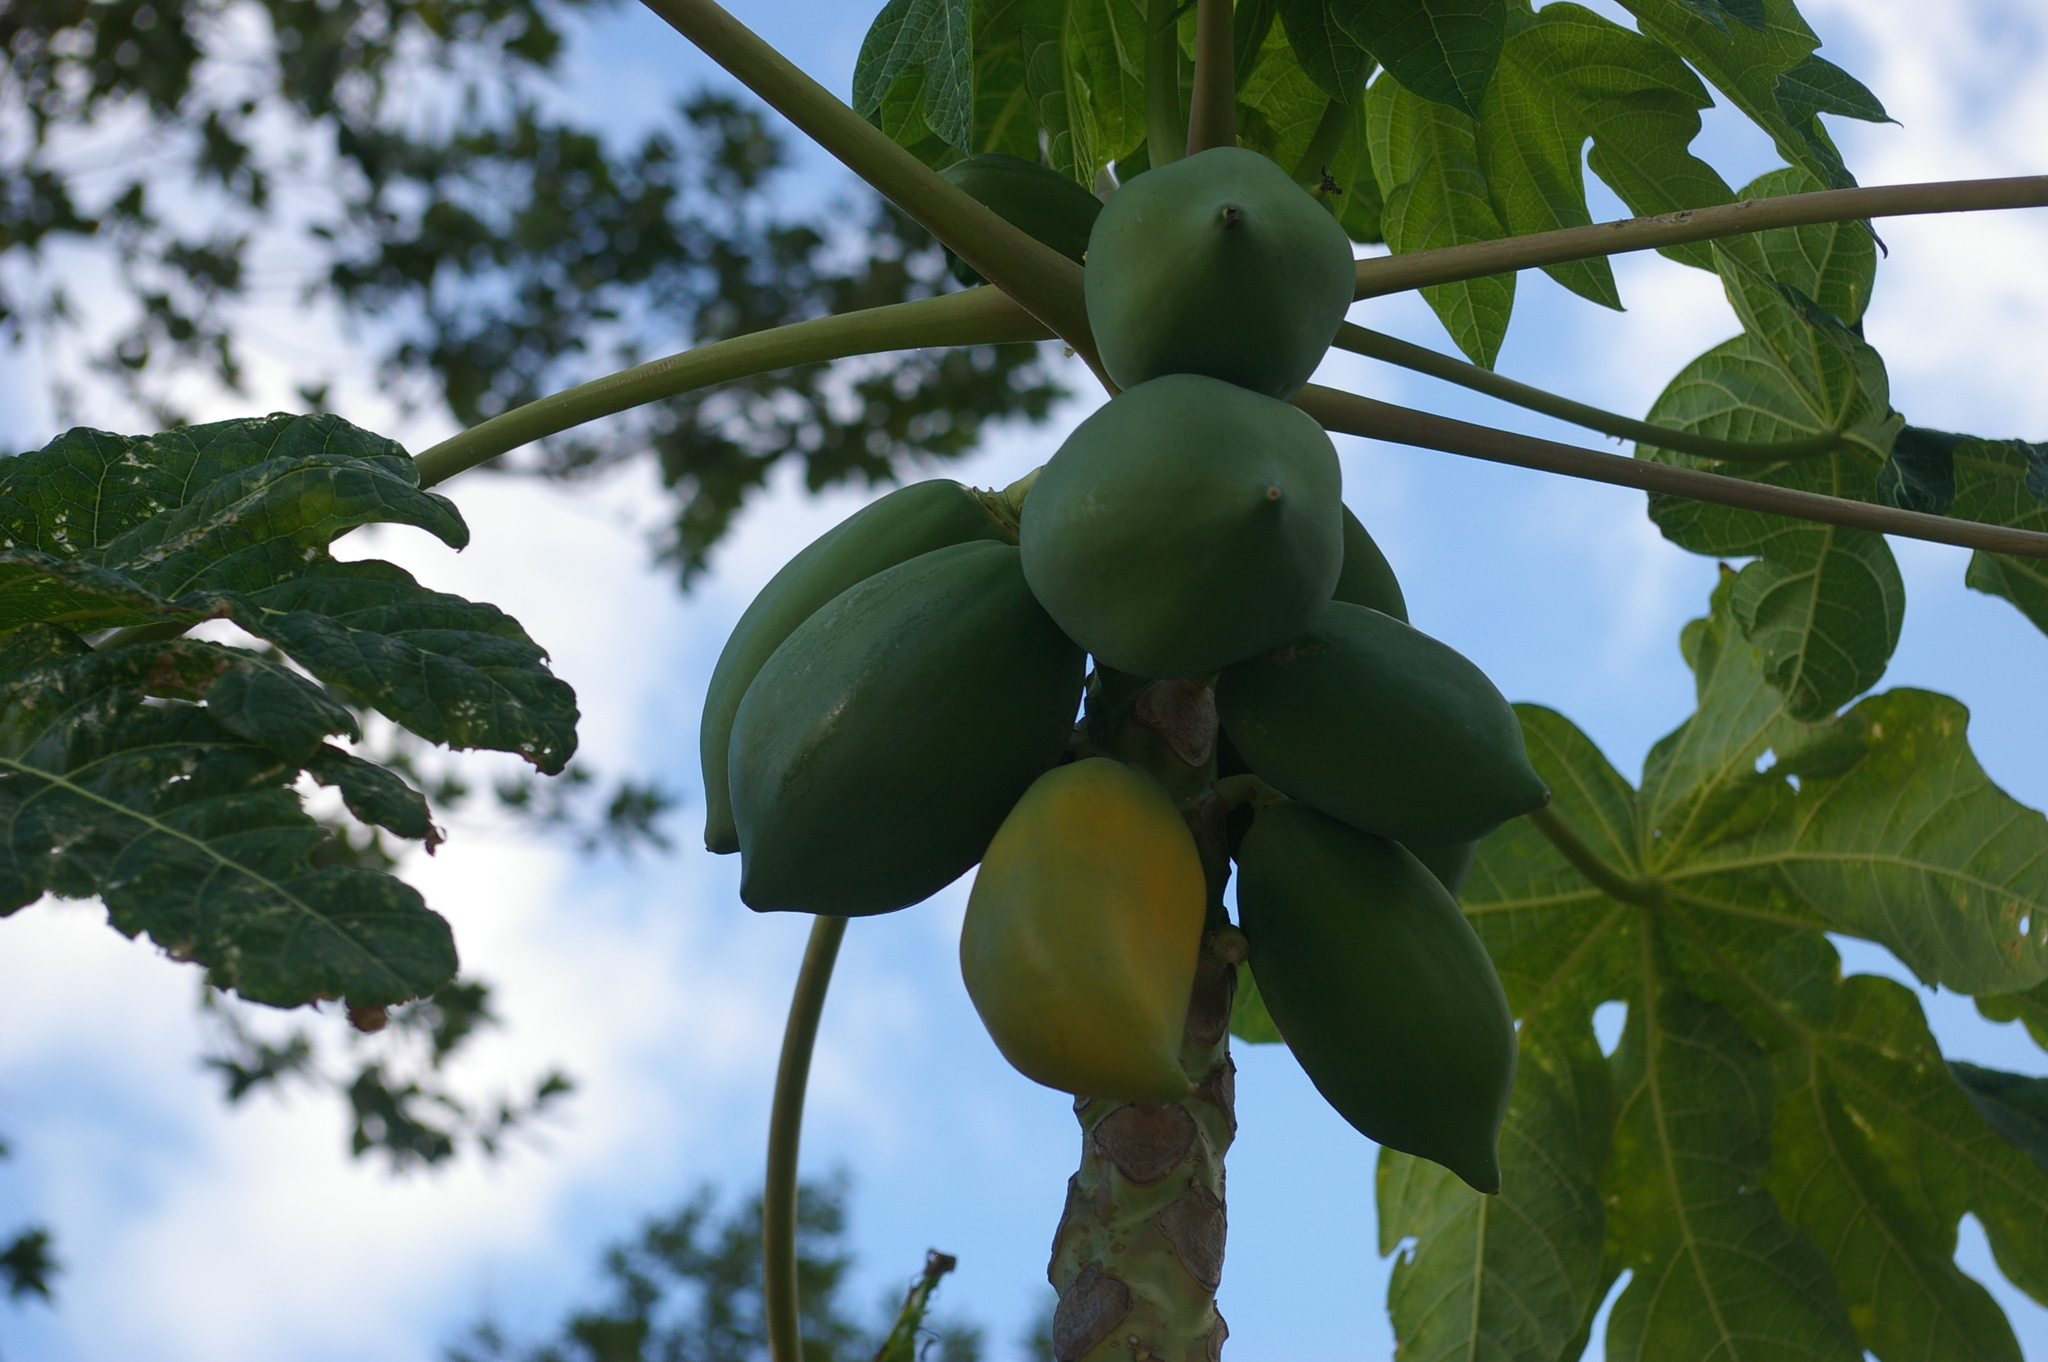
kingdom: Plantae
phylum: Tracheophyta
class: Magnoliopsida
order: Brassicales
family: Caricaceae
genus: Carica
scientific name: Carica papaya
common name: Papaya
